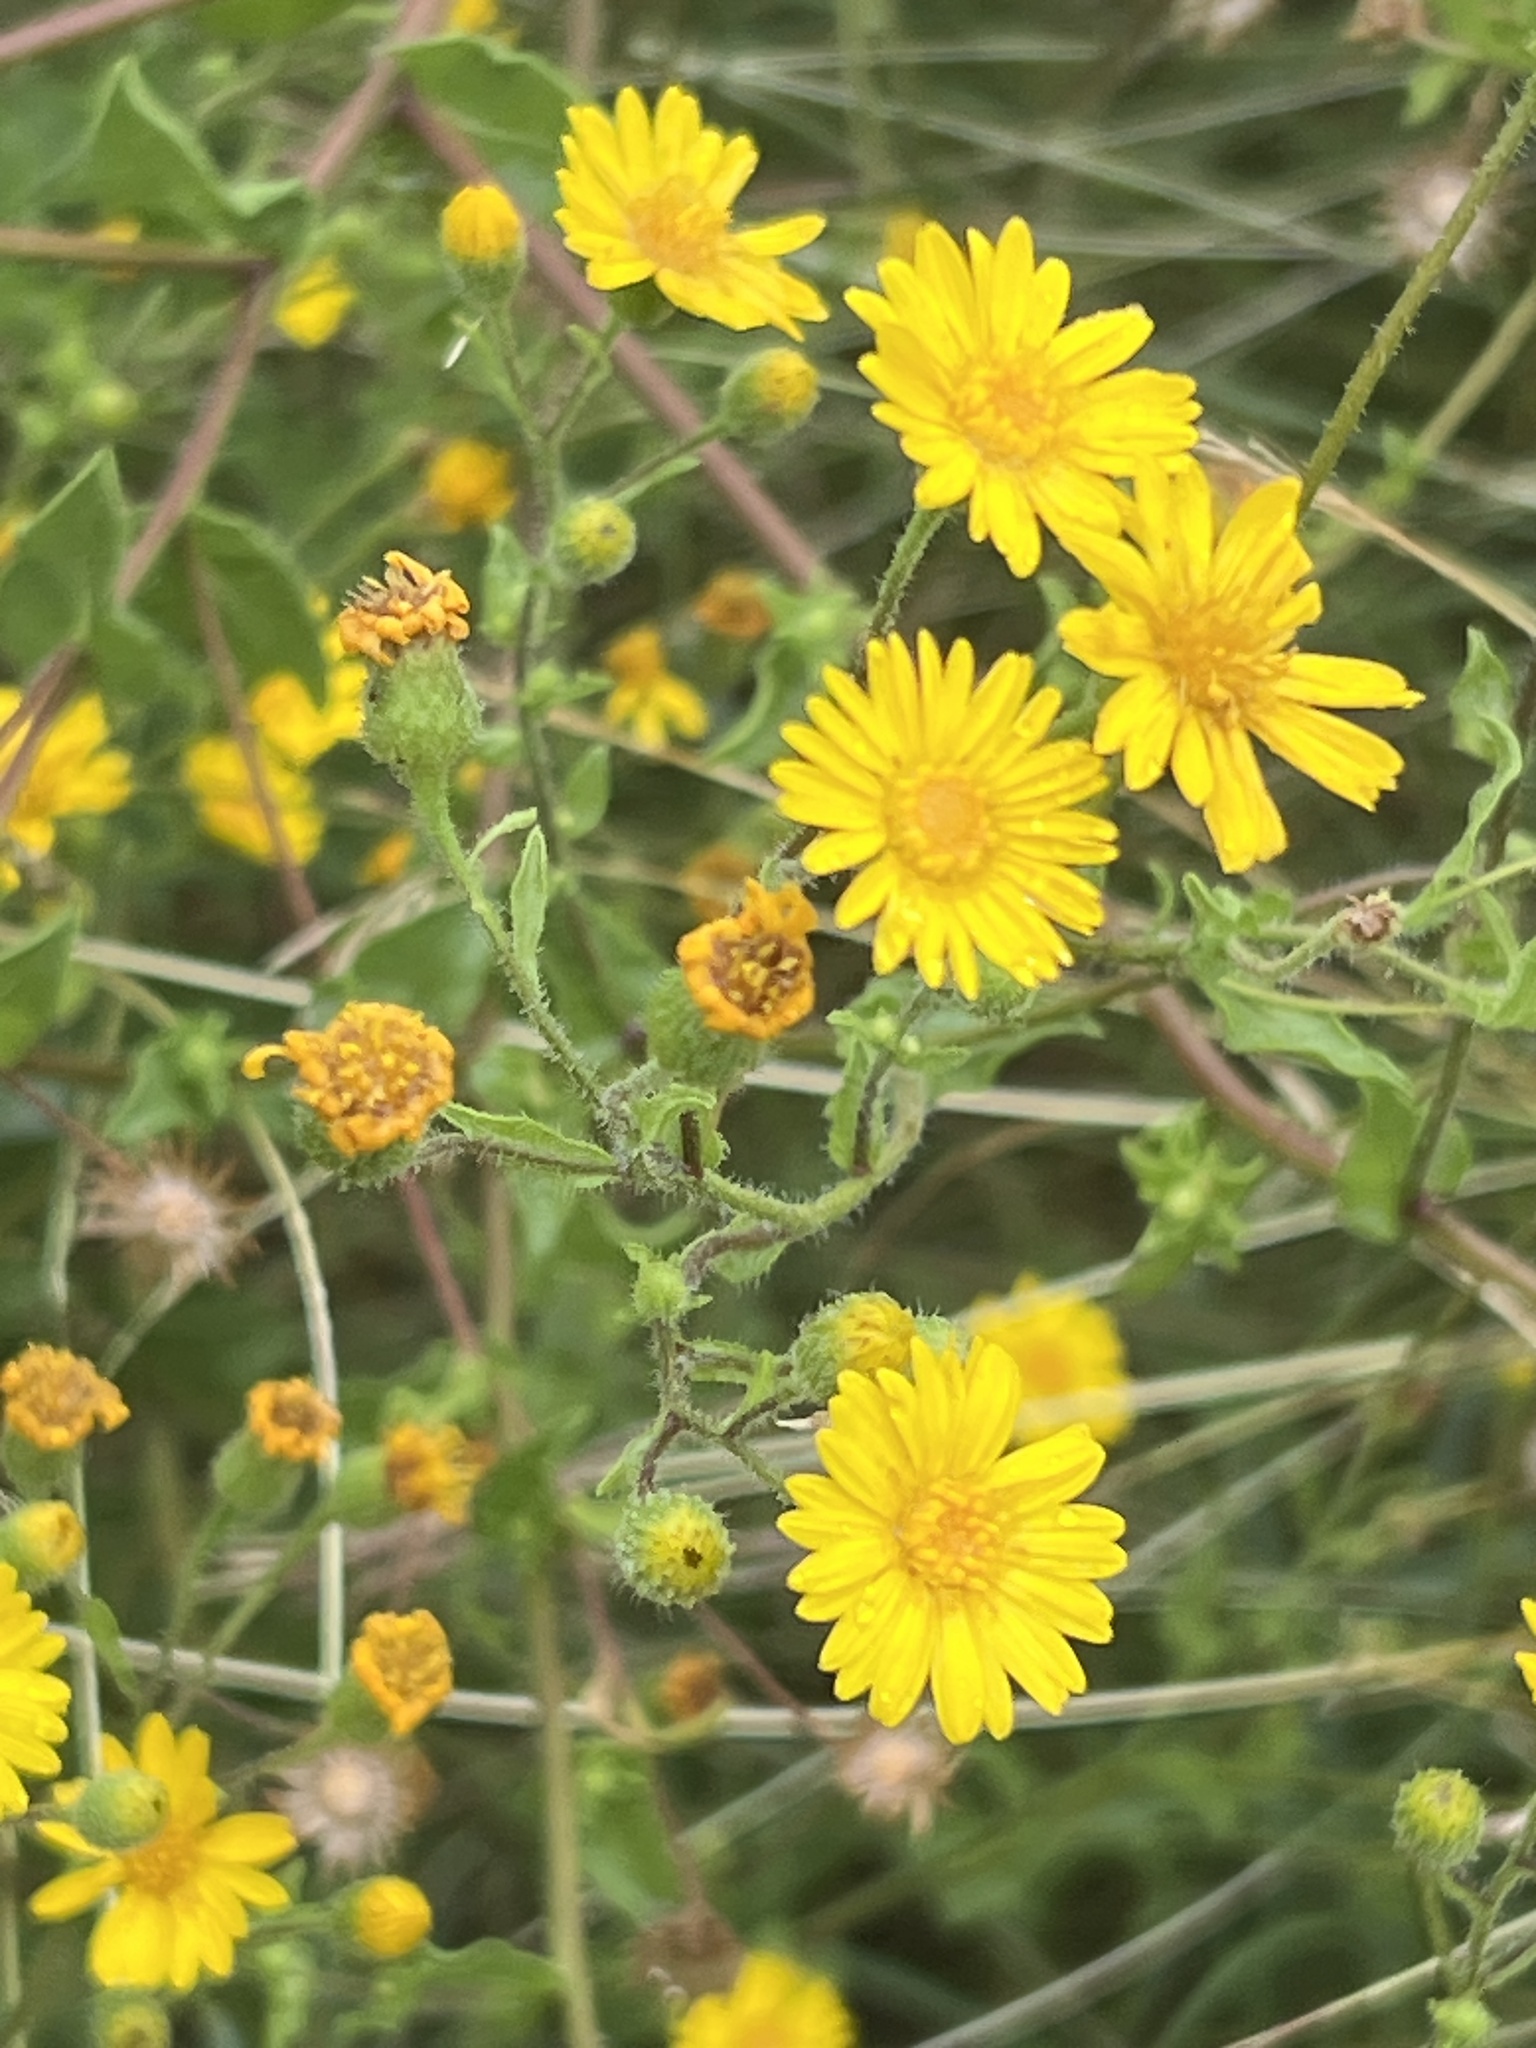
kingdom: Plantae
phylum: Tracheophyta
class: Magnoliopsida
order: Asterales
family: Asteraceae
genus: Heterotheca
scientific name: Heterotheca subaxillaris
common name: Camphorweed
